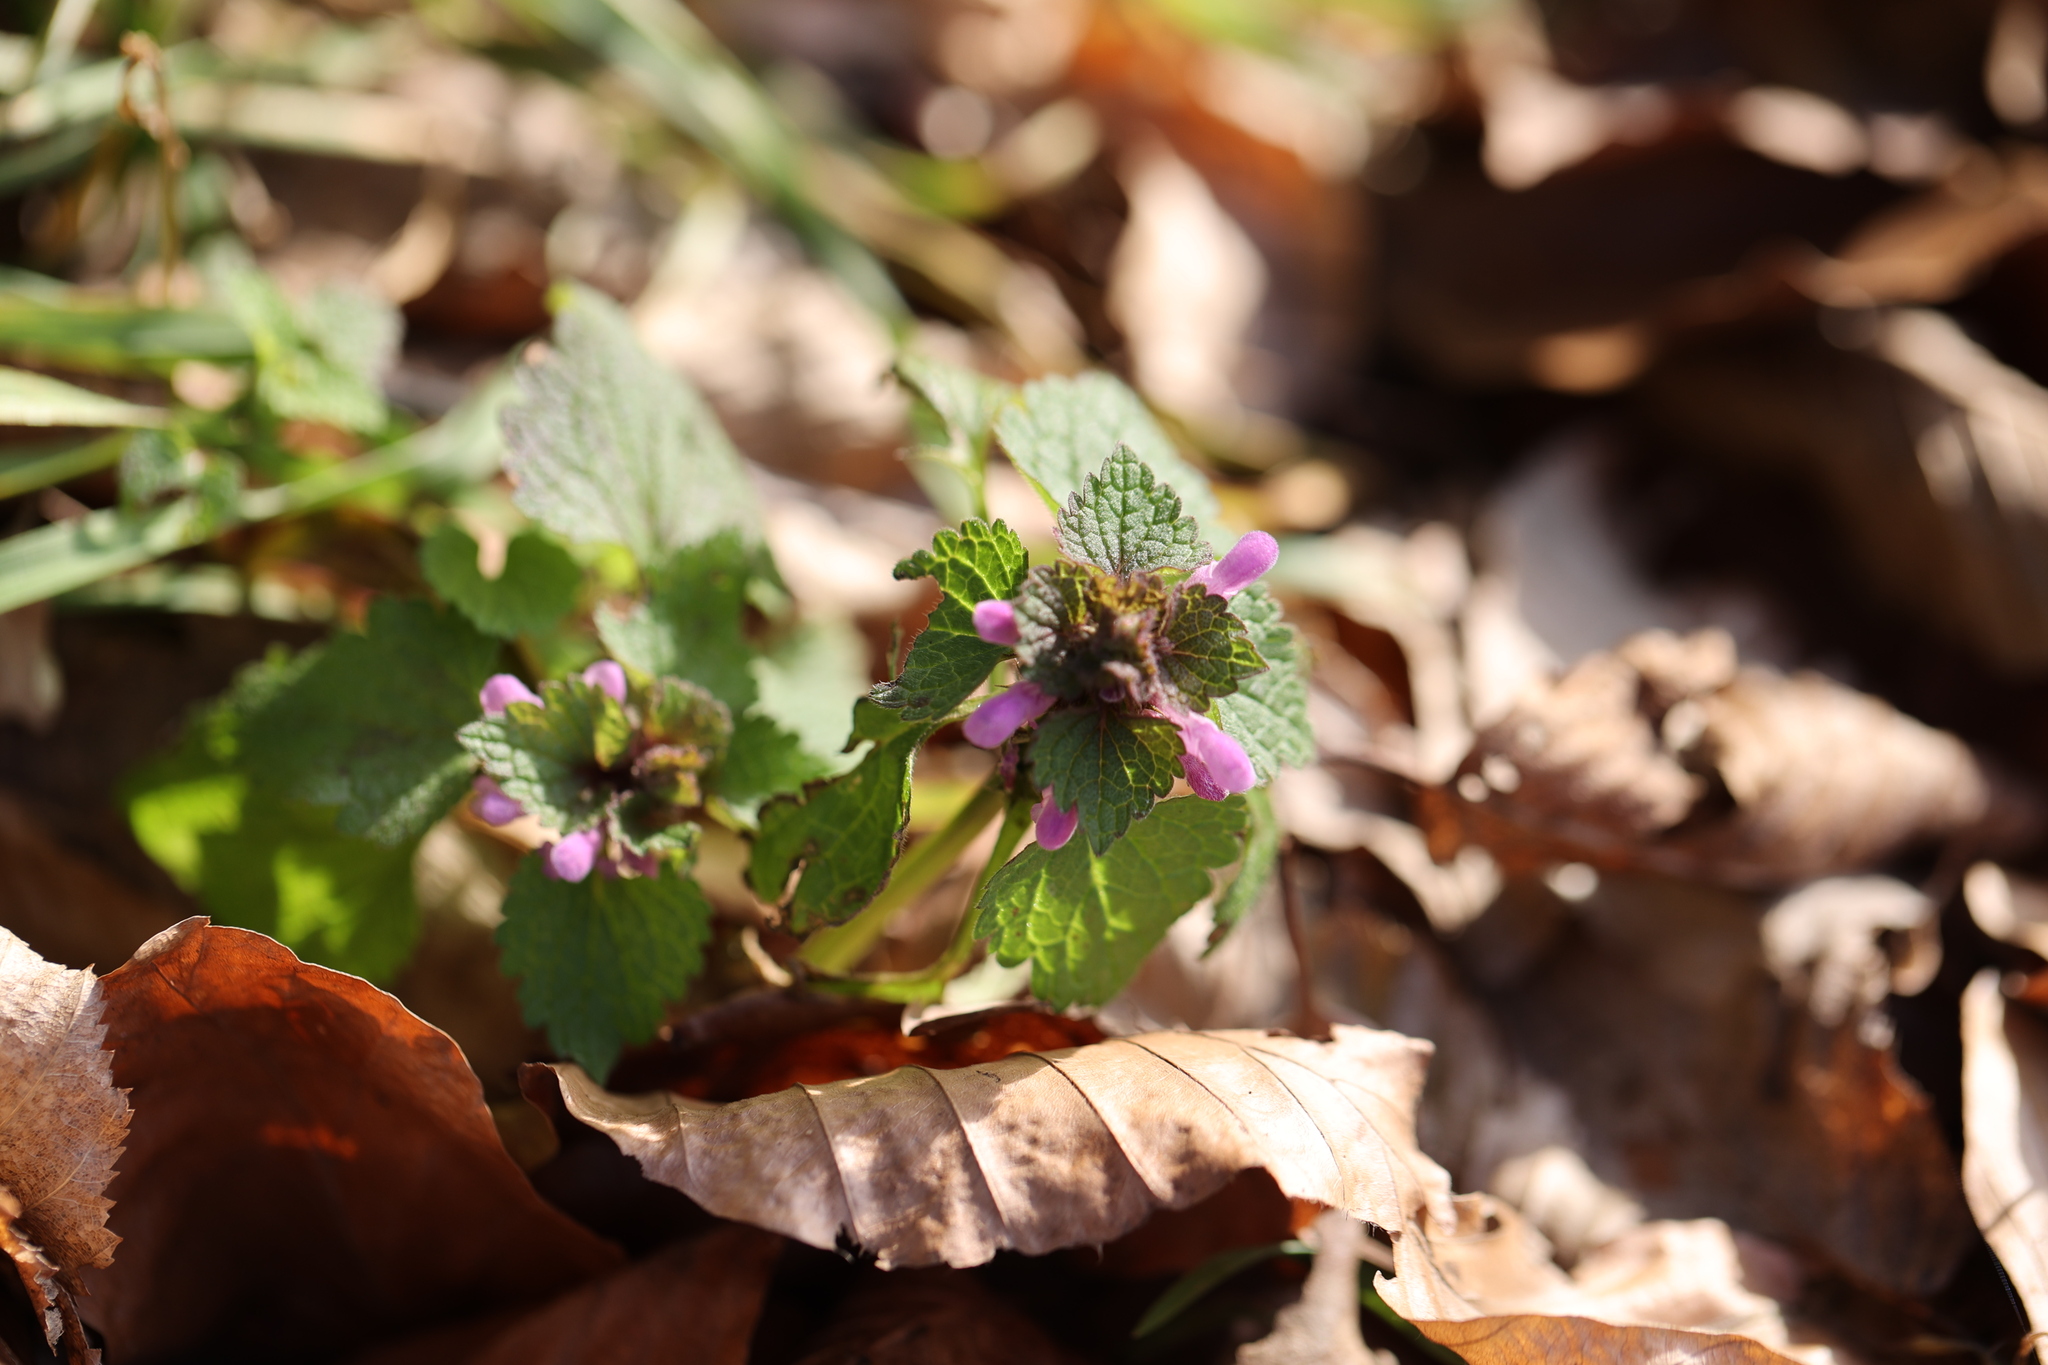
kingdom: Plantae
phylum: Tracheophyta
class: Magnoliopsida
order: Lamiales
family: Lamiaceae
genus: Lamium
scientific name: Lamium purpureum
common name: Red dead-nettle
